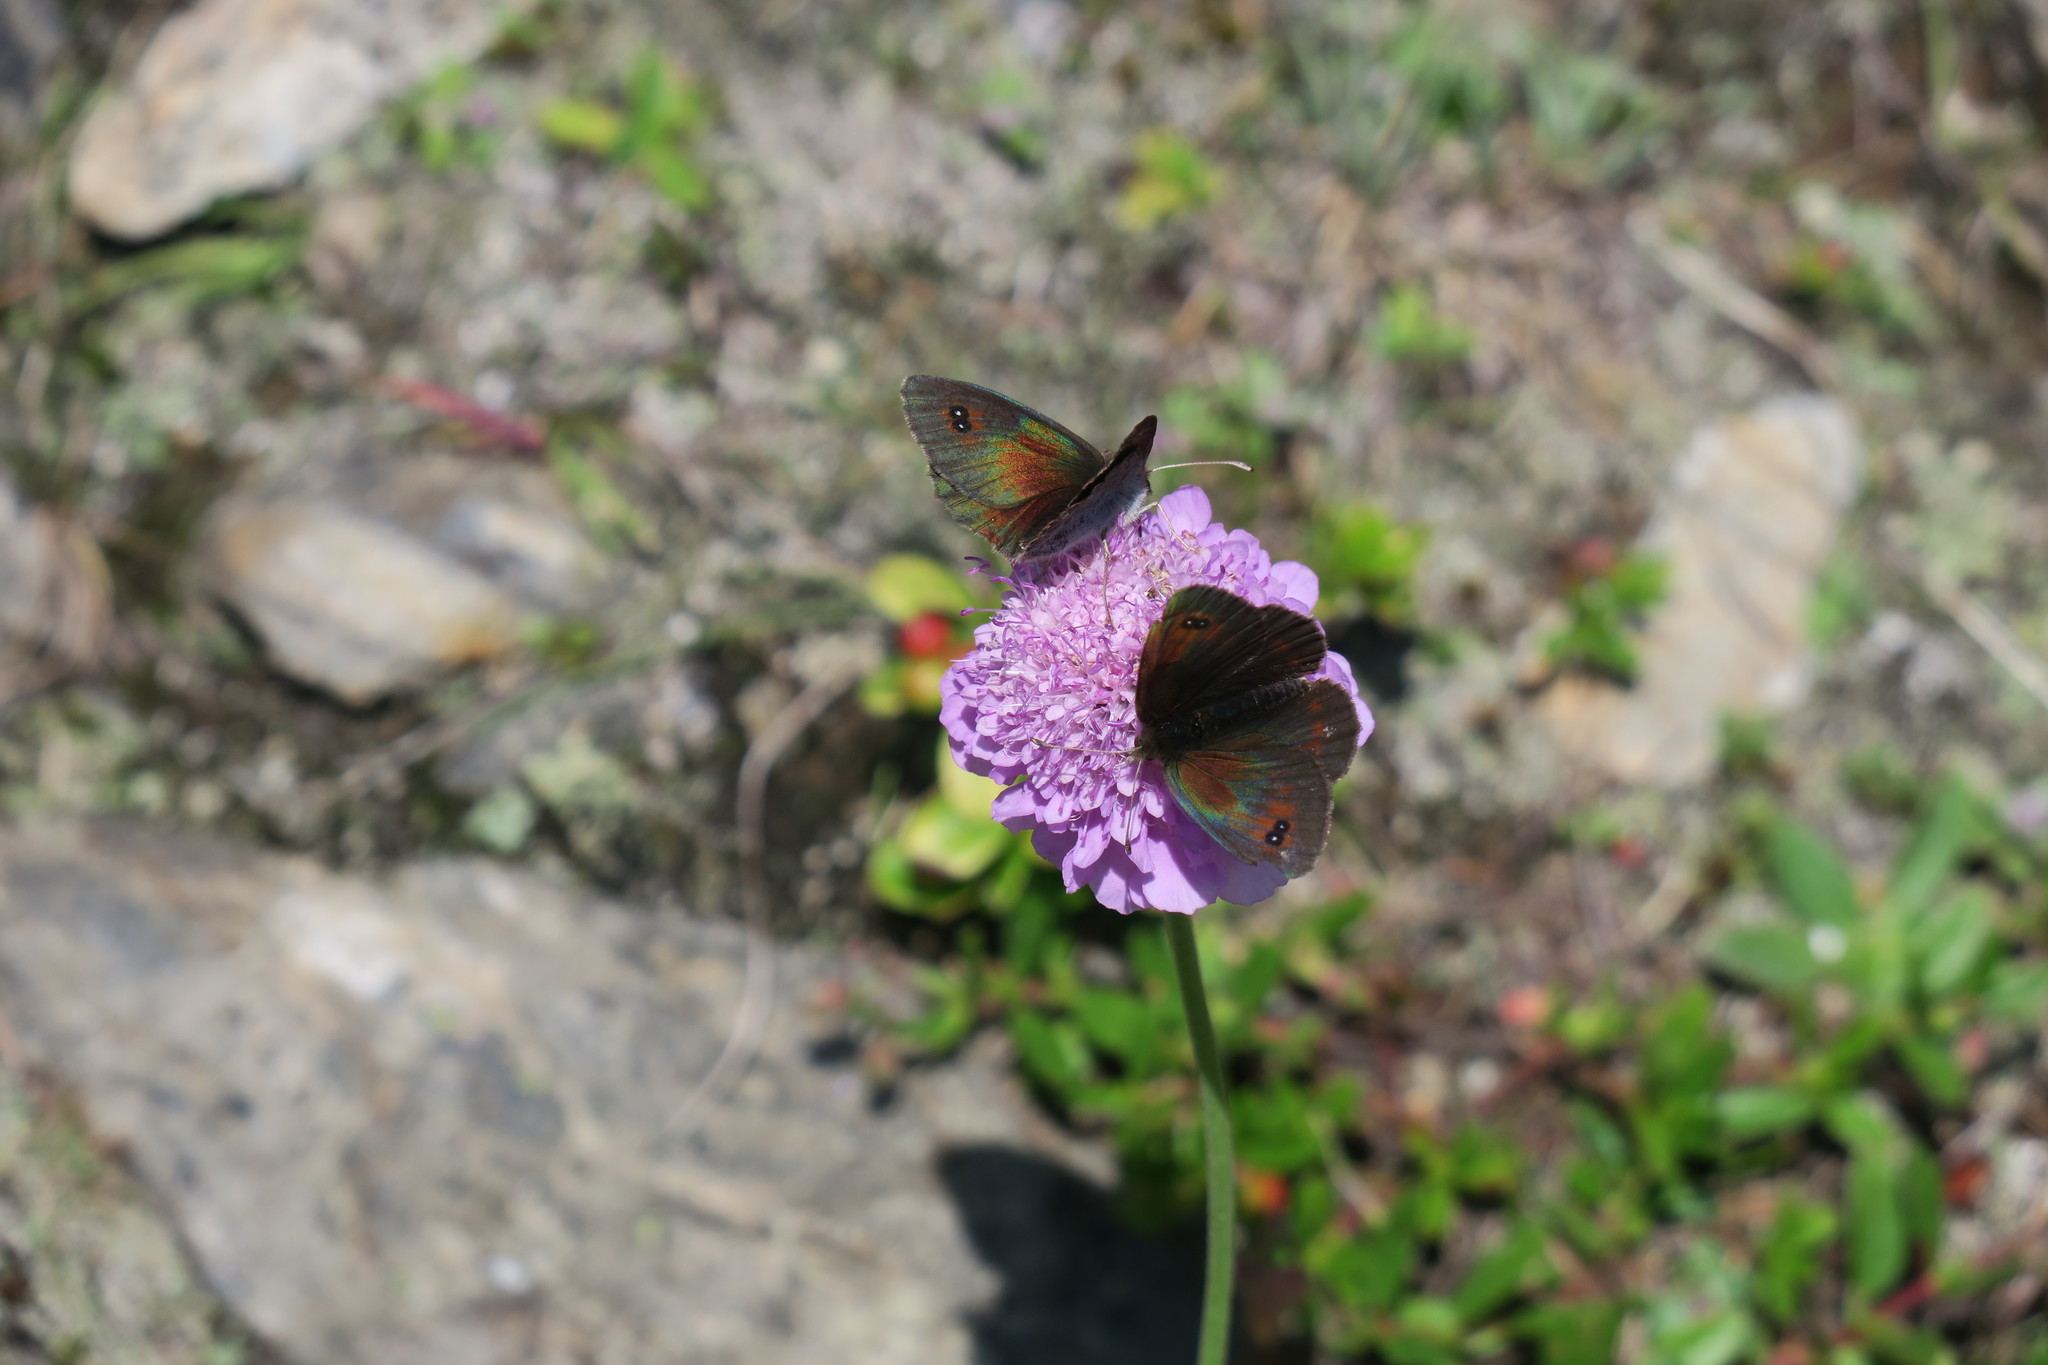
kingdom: Animalia
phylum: Arthropoda
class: Insecta
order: Lepidoptera
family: Nymphalidae
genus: Erebia
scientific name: Erebia cassioides
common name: Common brassy ringlet
